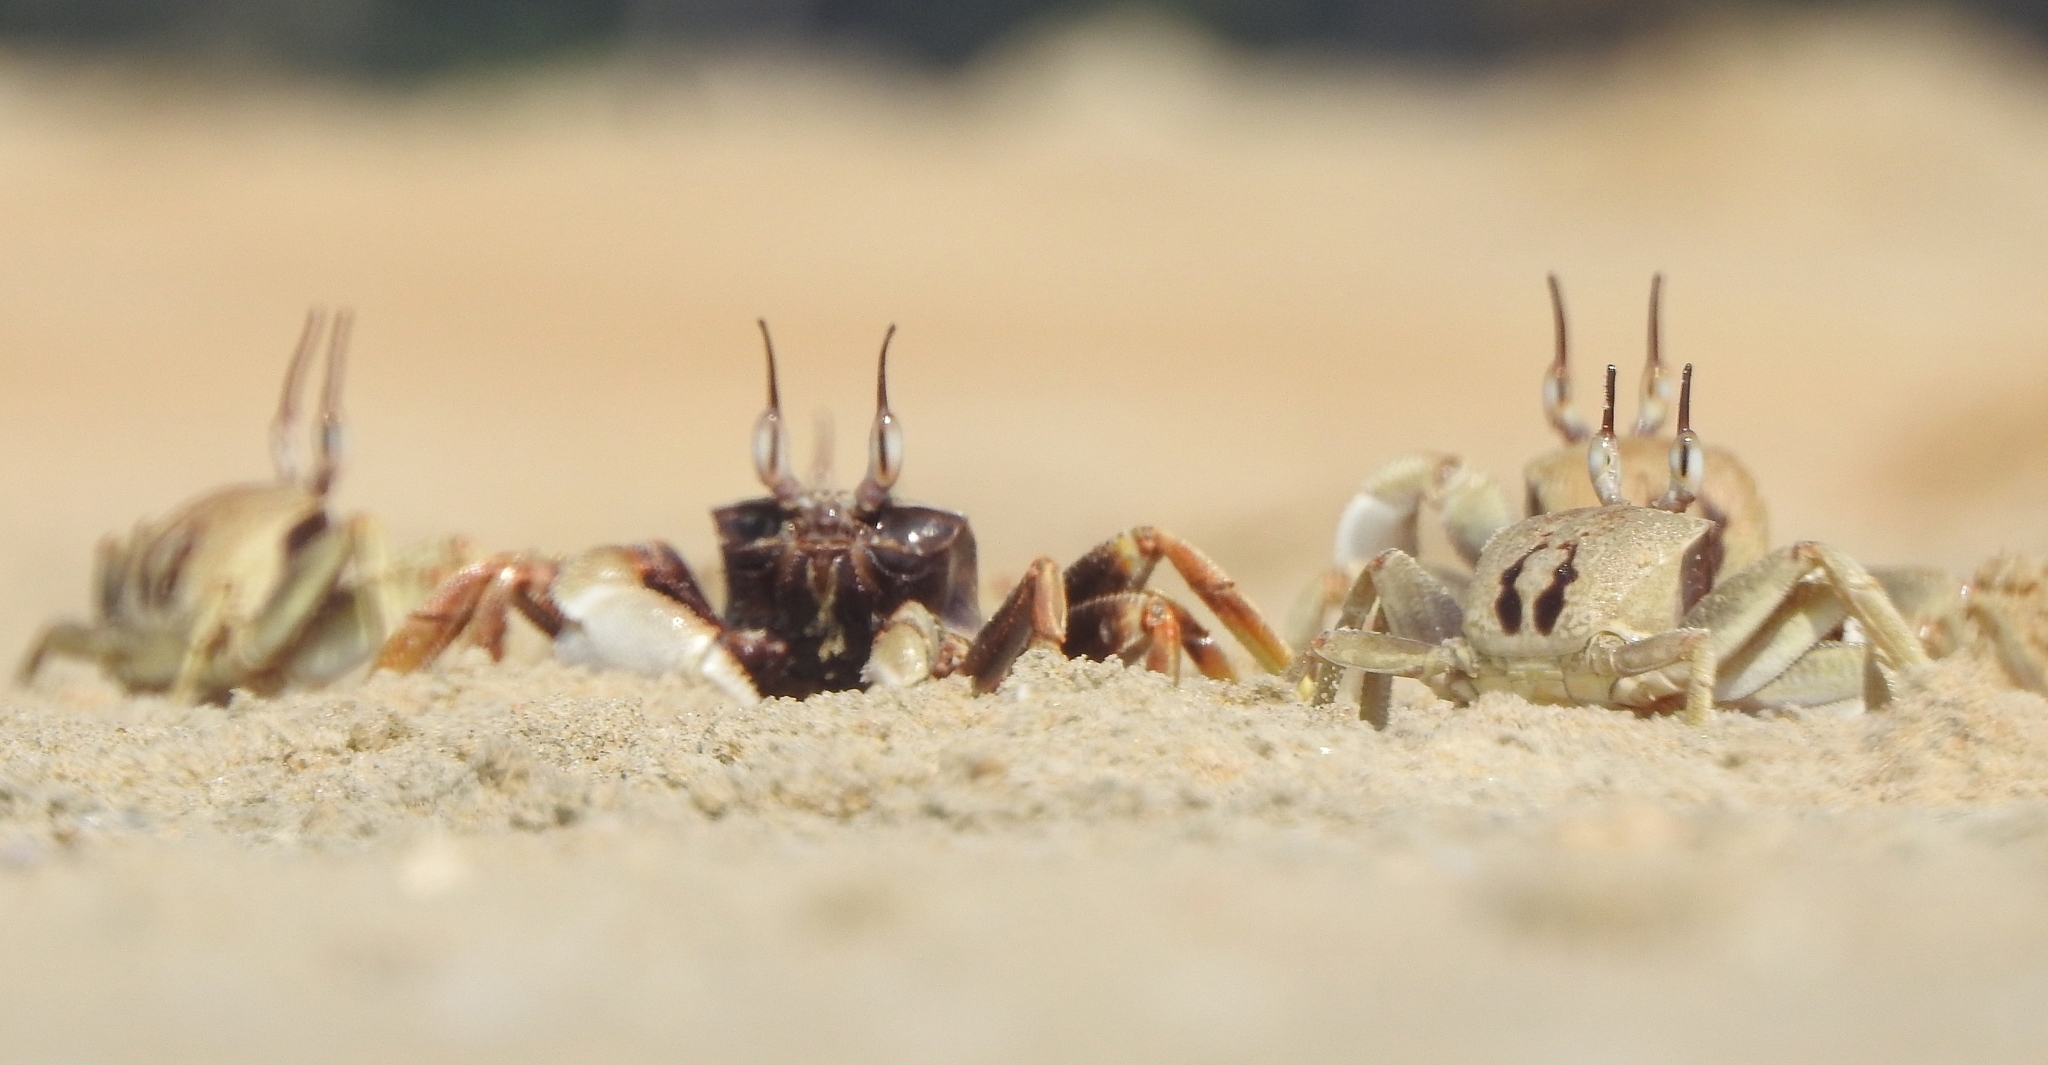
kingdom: Animalia
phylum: Arthropoda
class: Malacostraca
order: Decapoda
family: Ocypodidae
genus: Ocypode
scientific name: Ocypode ceratophthalmus
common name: Indo-pacific ghost crab
